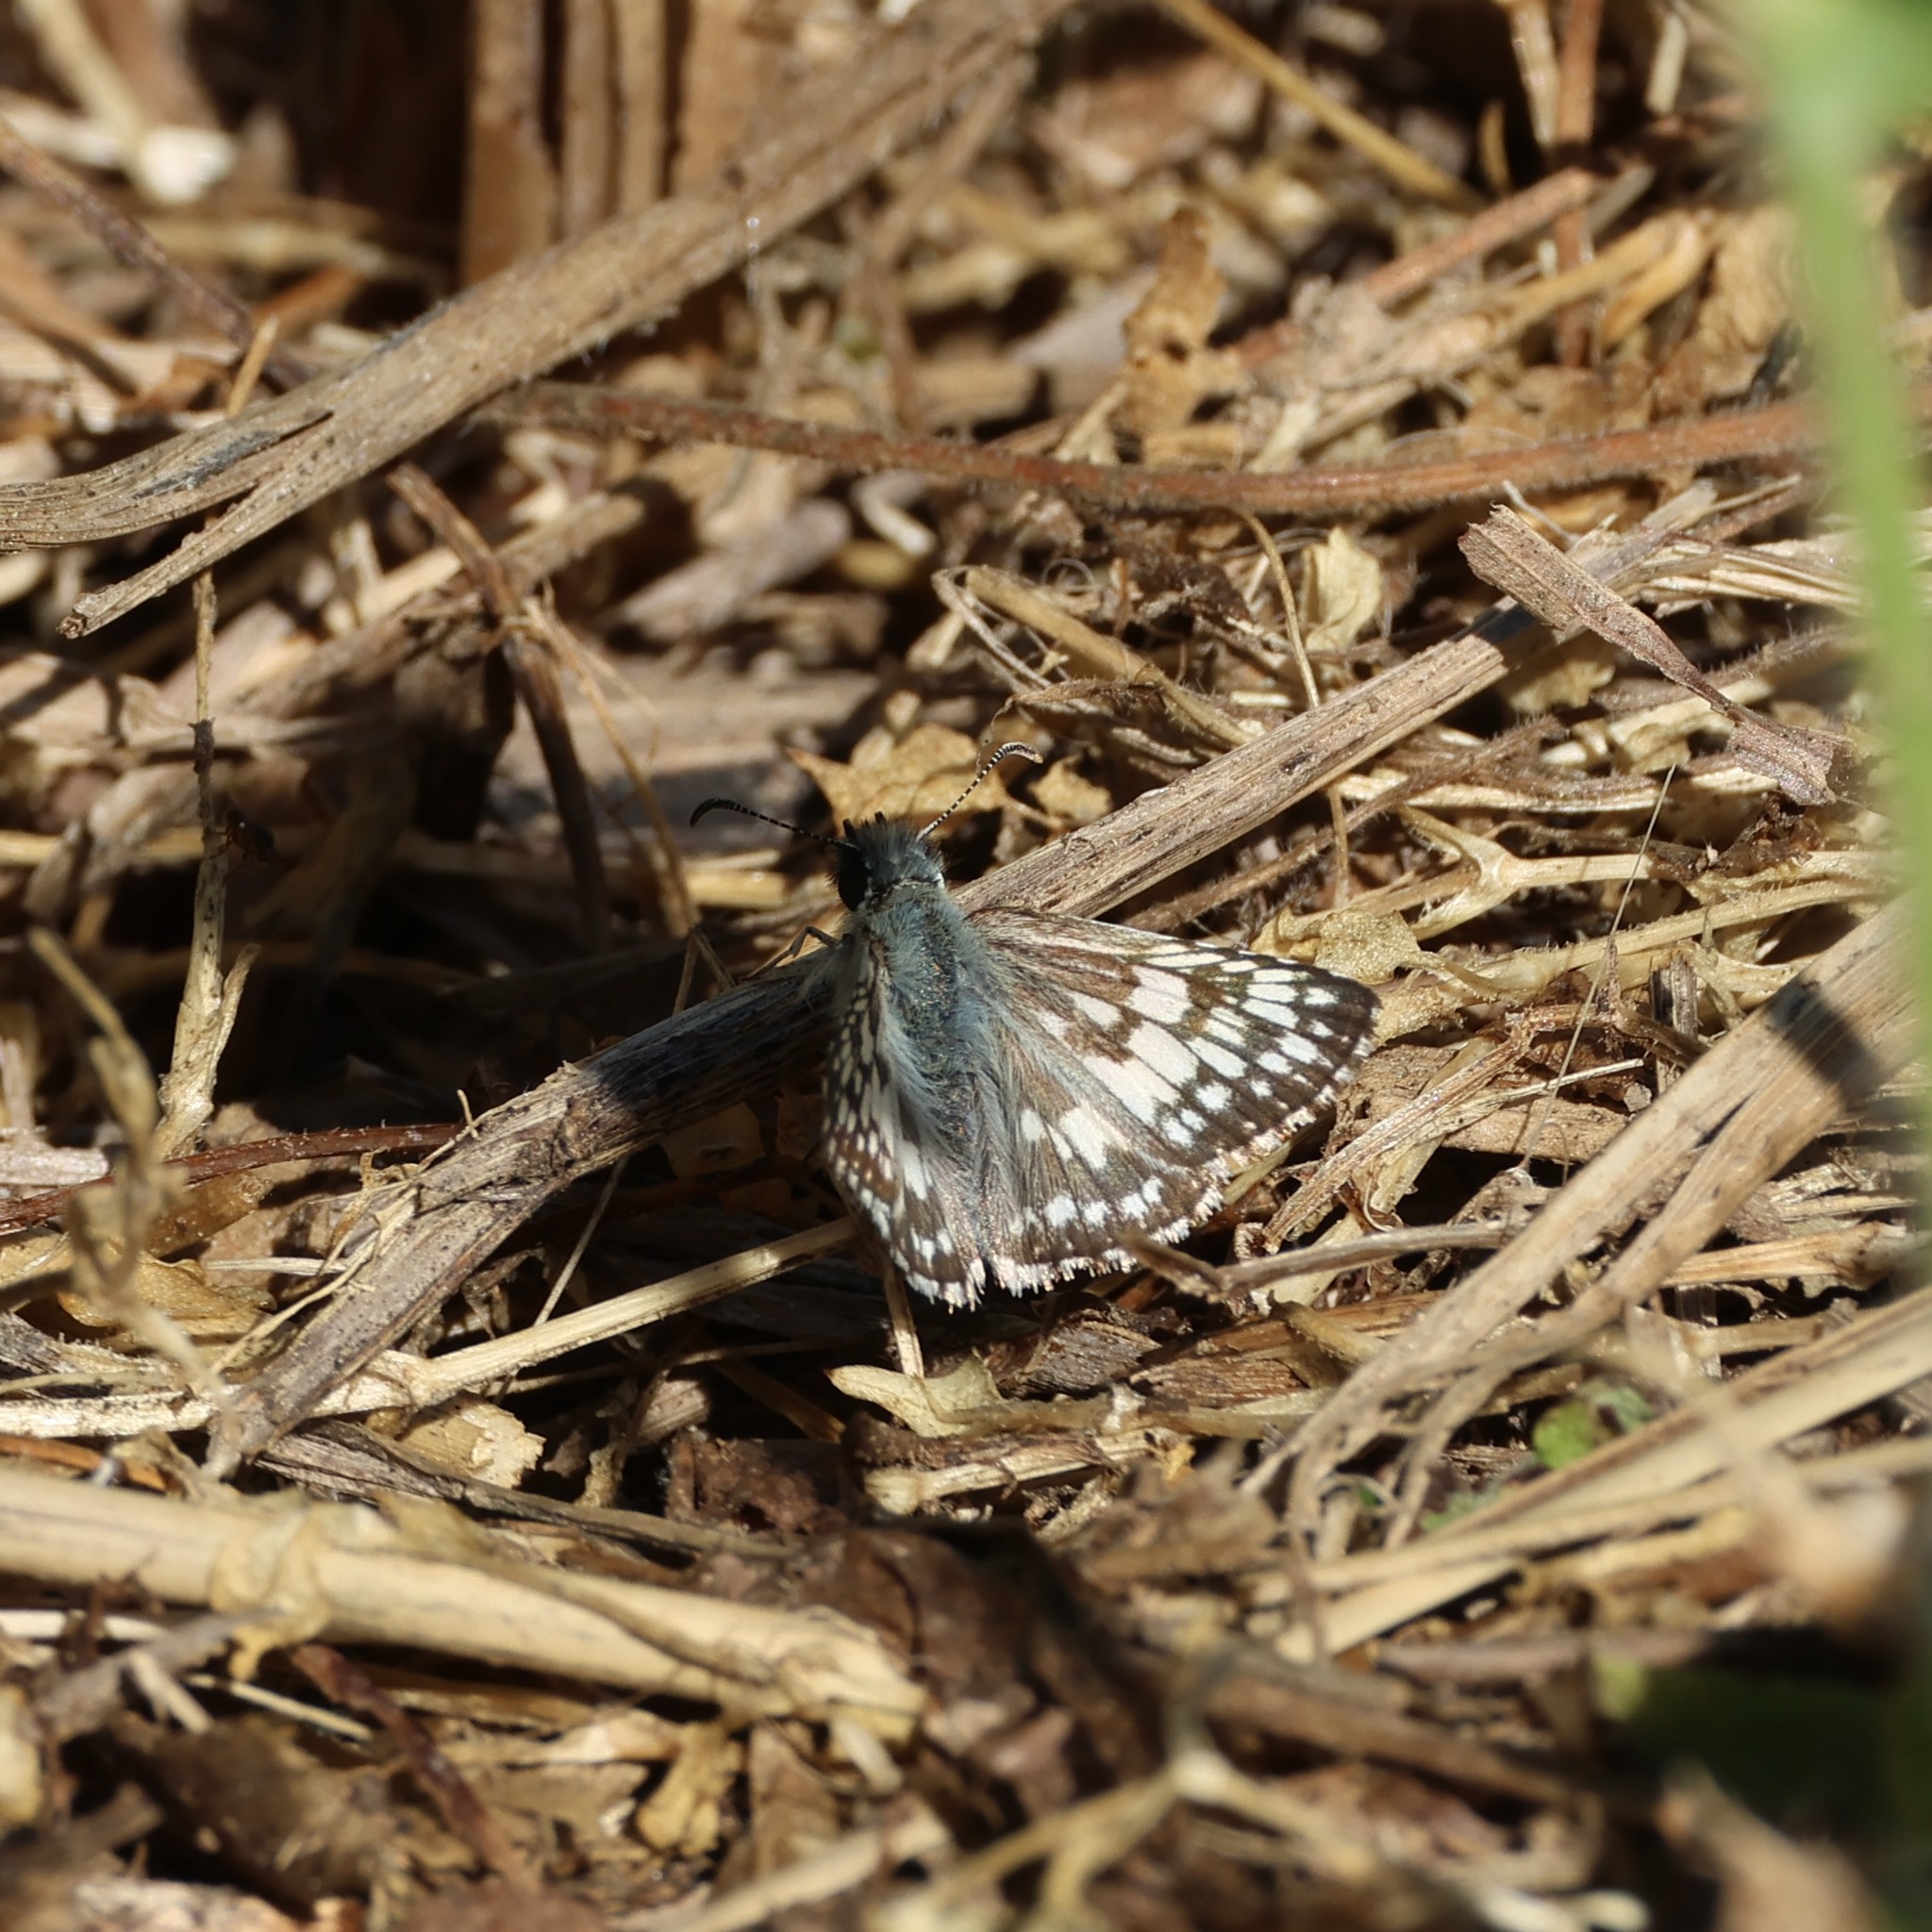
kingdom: Animalia
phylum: Arthropoda
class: Insecta
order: Lepidoptera
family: Hesperiidae
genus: Burnsius
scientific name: Burnsius albezens
